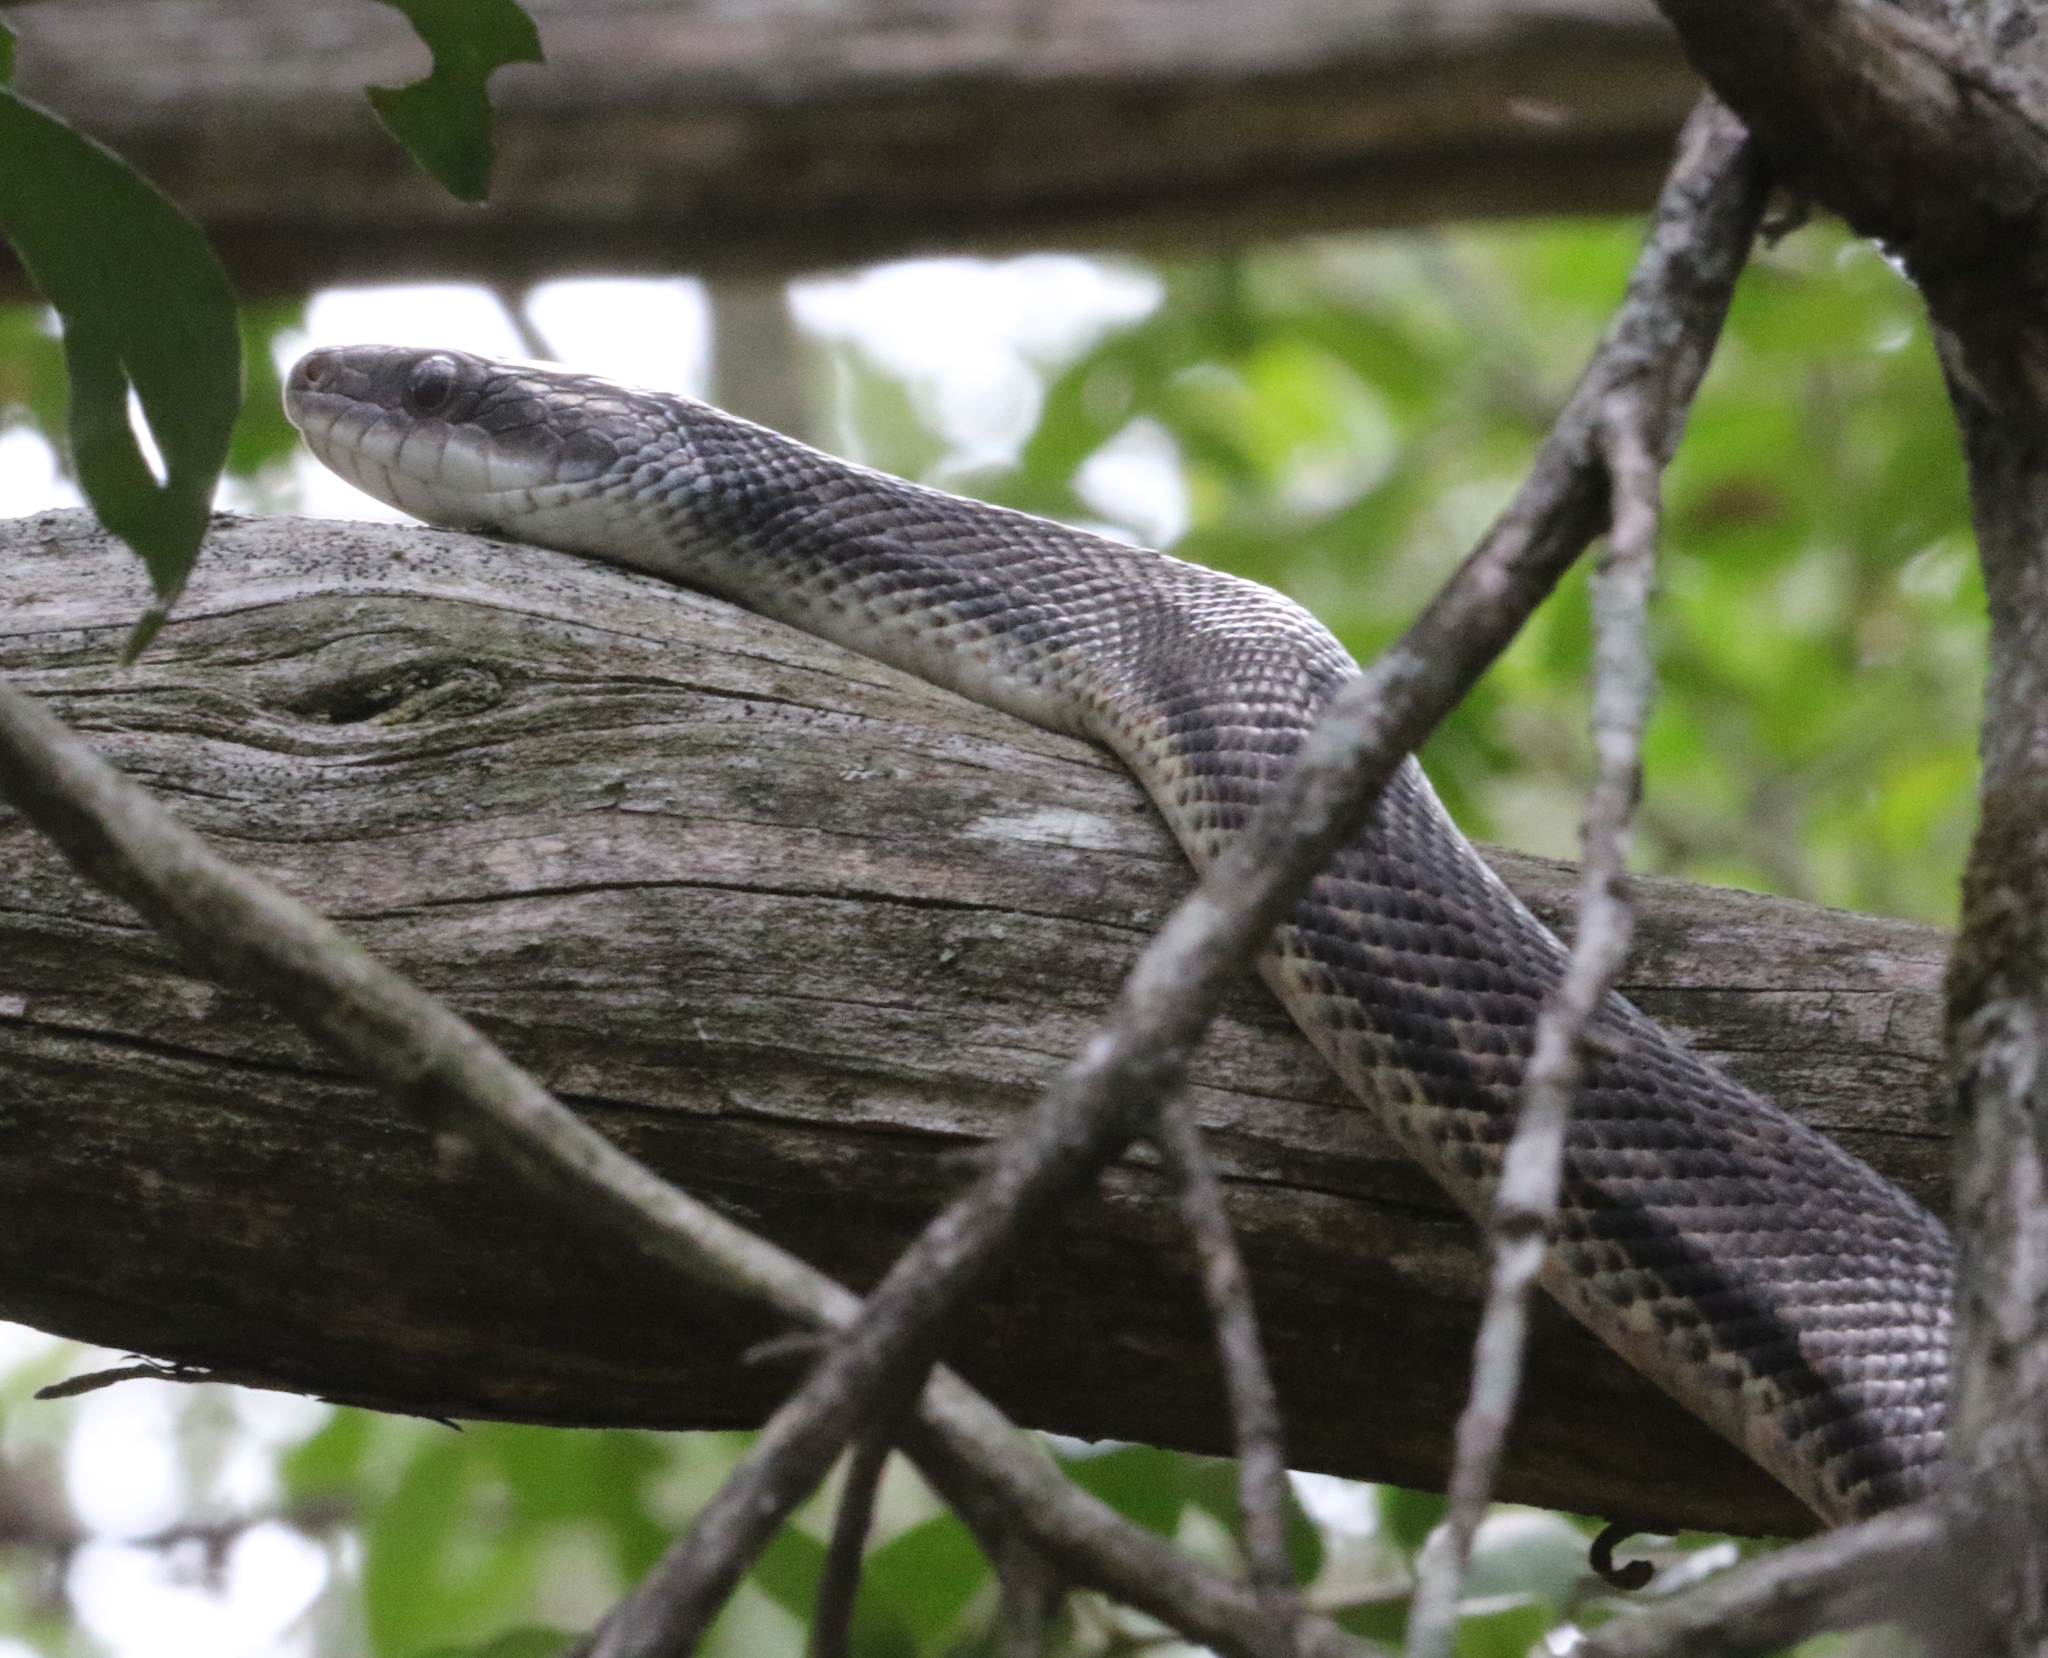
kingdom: Animalia
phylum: Chordata
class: Squamata
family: Colubridae
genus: Pantherophis
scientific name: Pantherophis obsoletus
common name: Black rat snake
